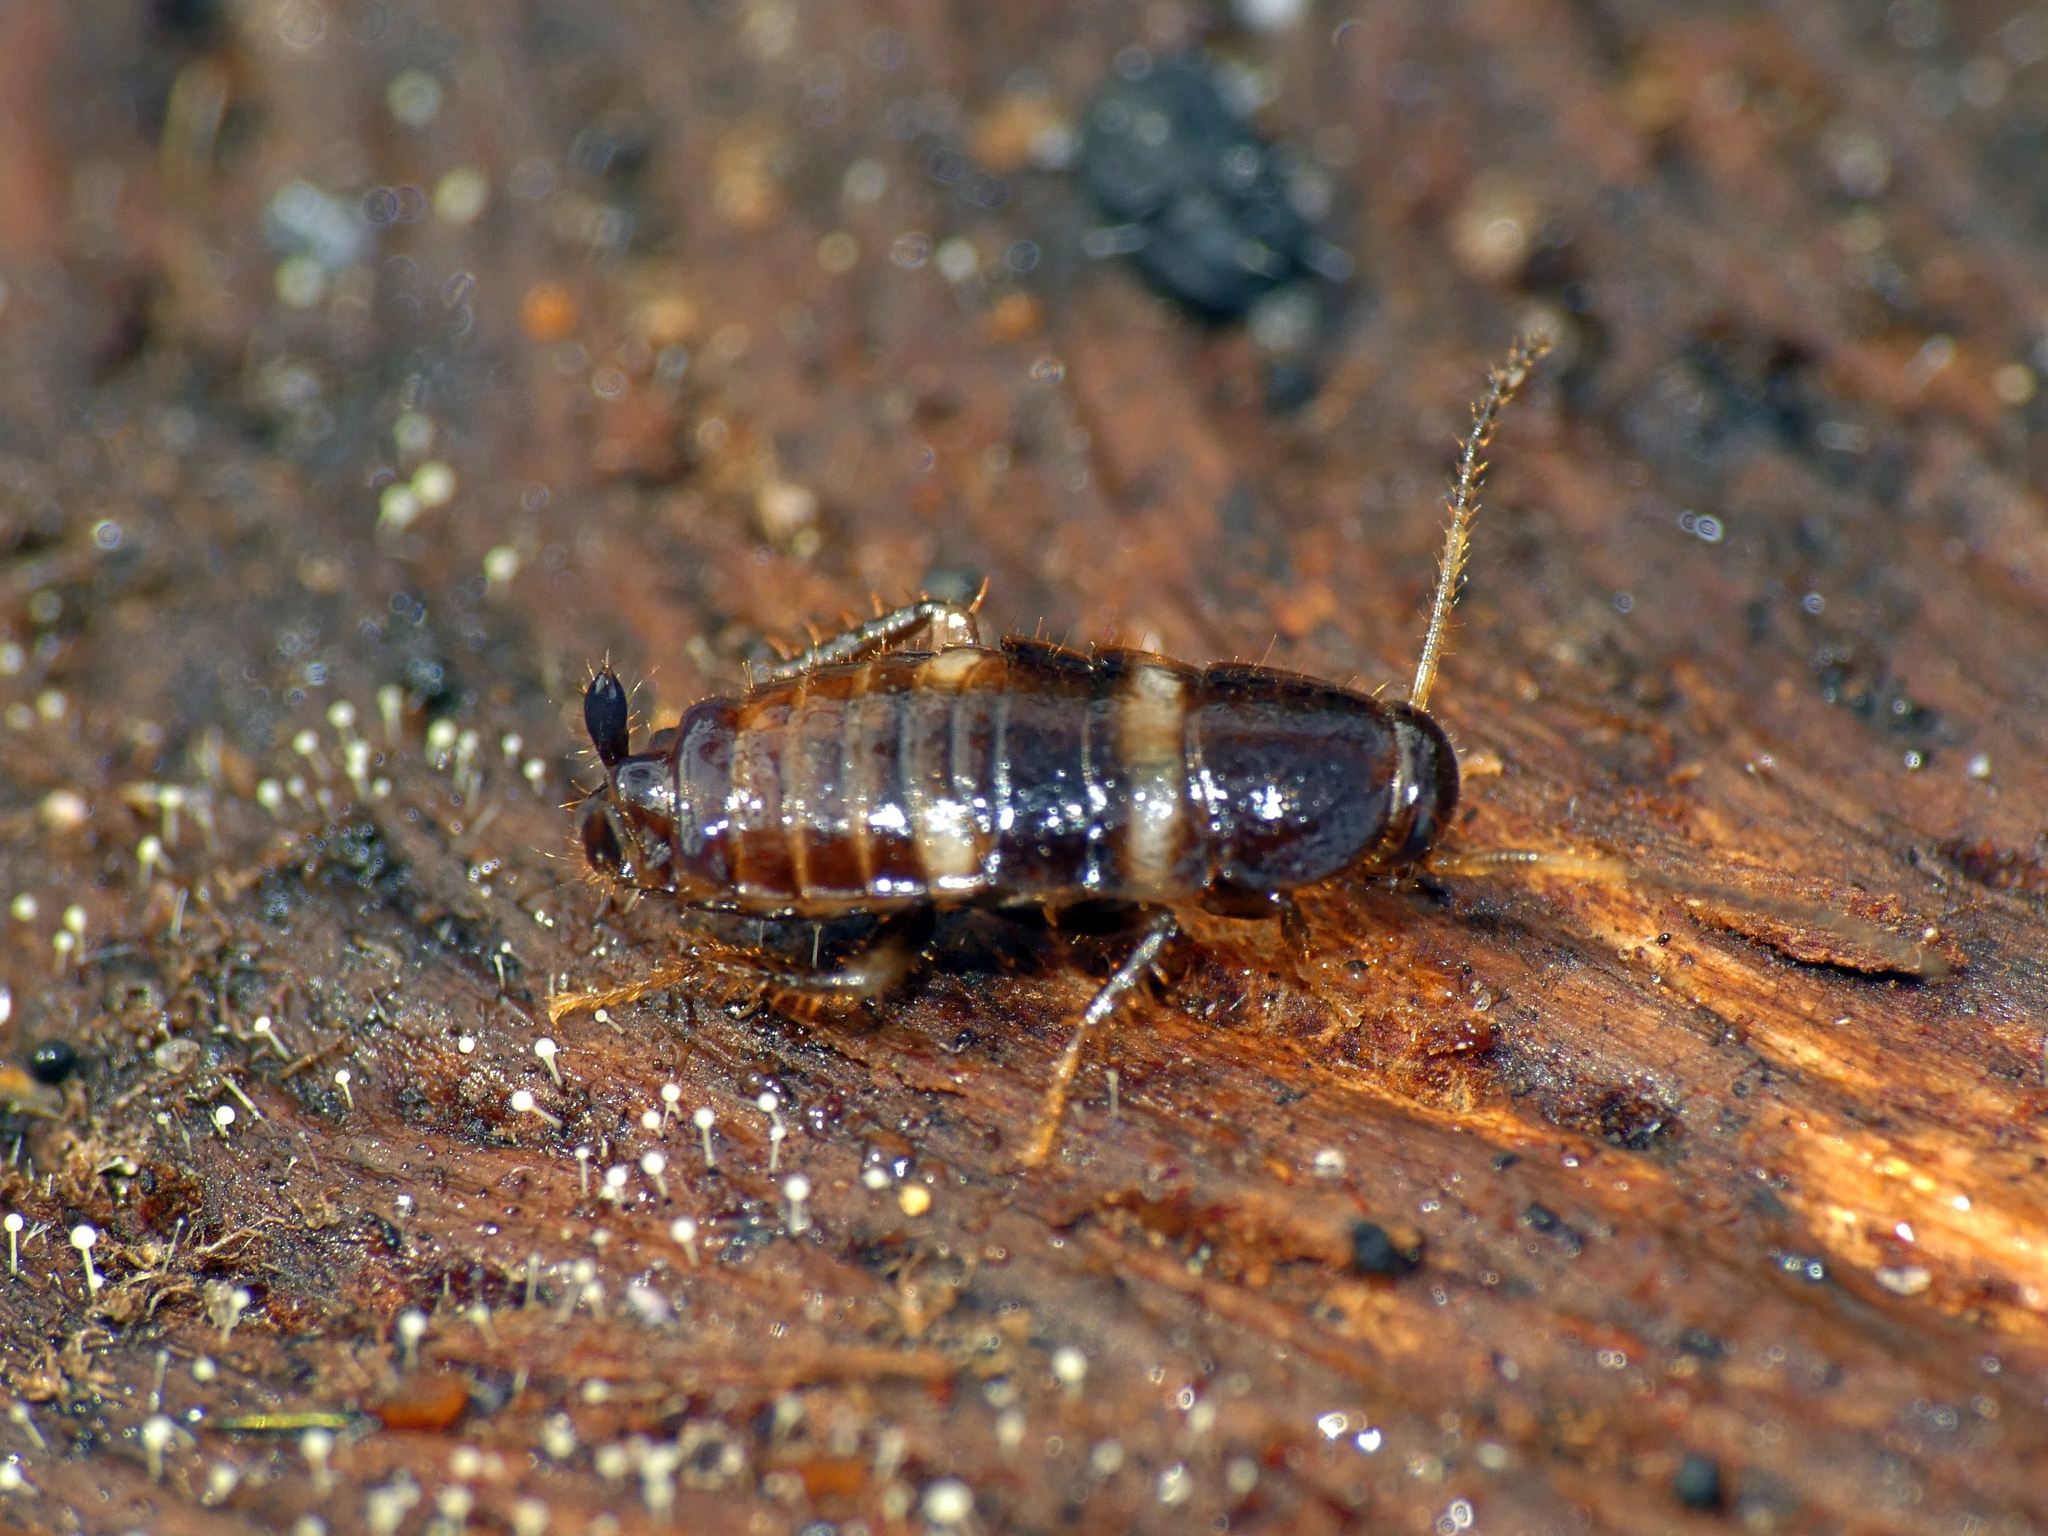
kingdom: Animalia
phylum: Arthropoda
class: Insecta
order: Blattodea
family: Blattidae
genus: Periplaneta
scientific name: Periplaneta fuliginosa
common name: Smokeybrown cockroad
